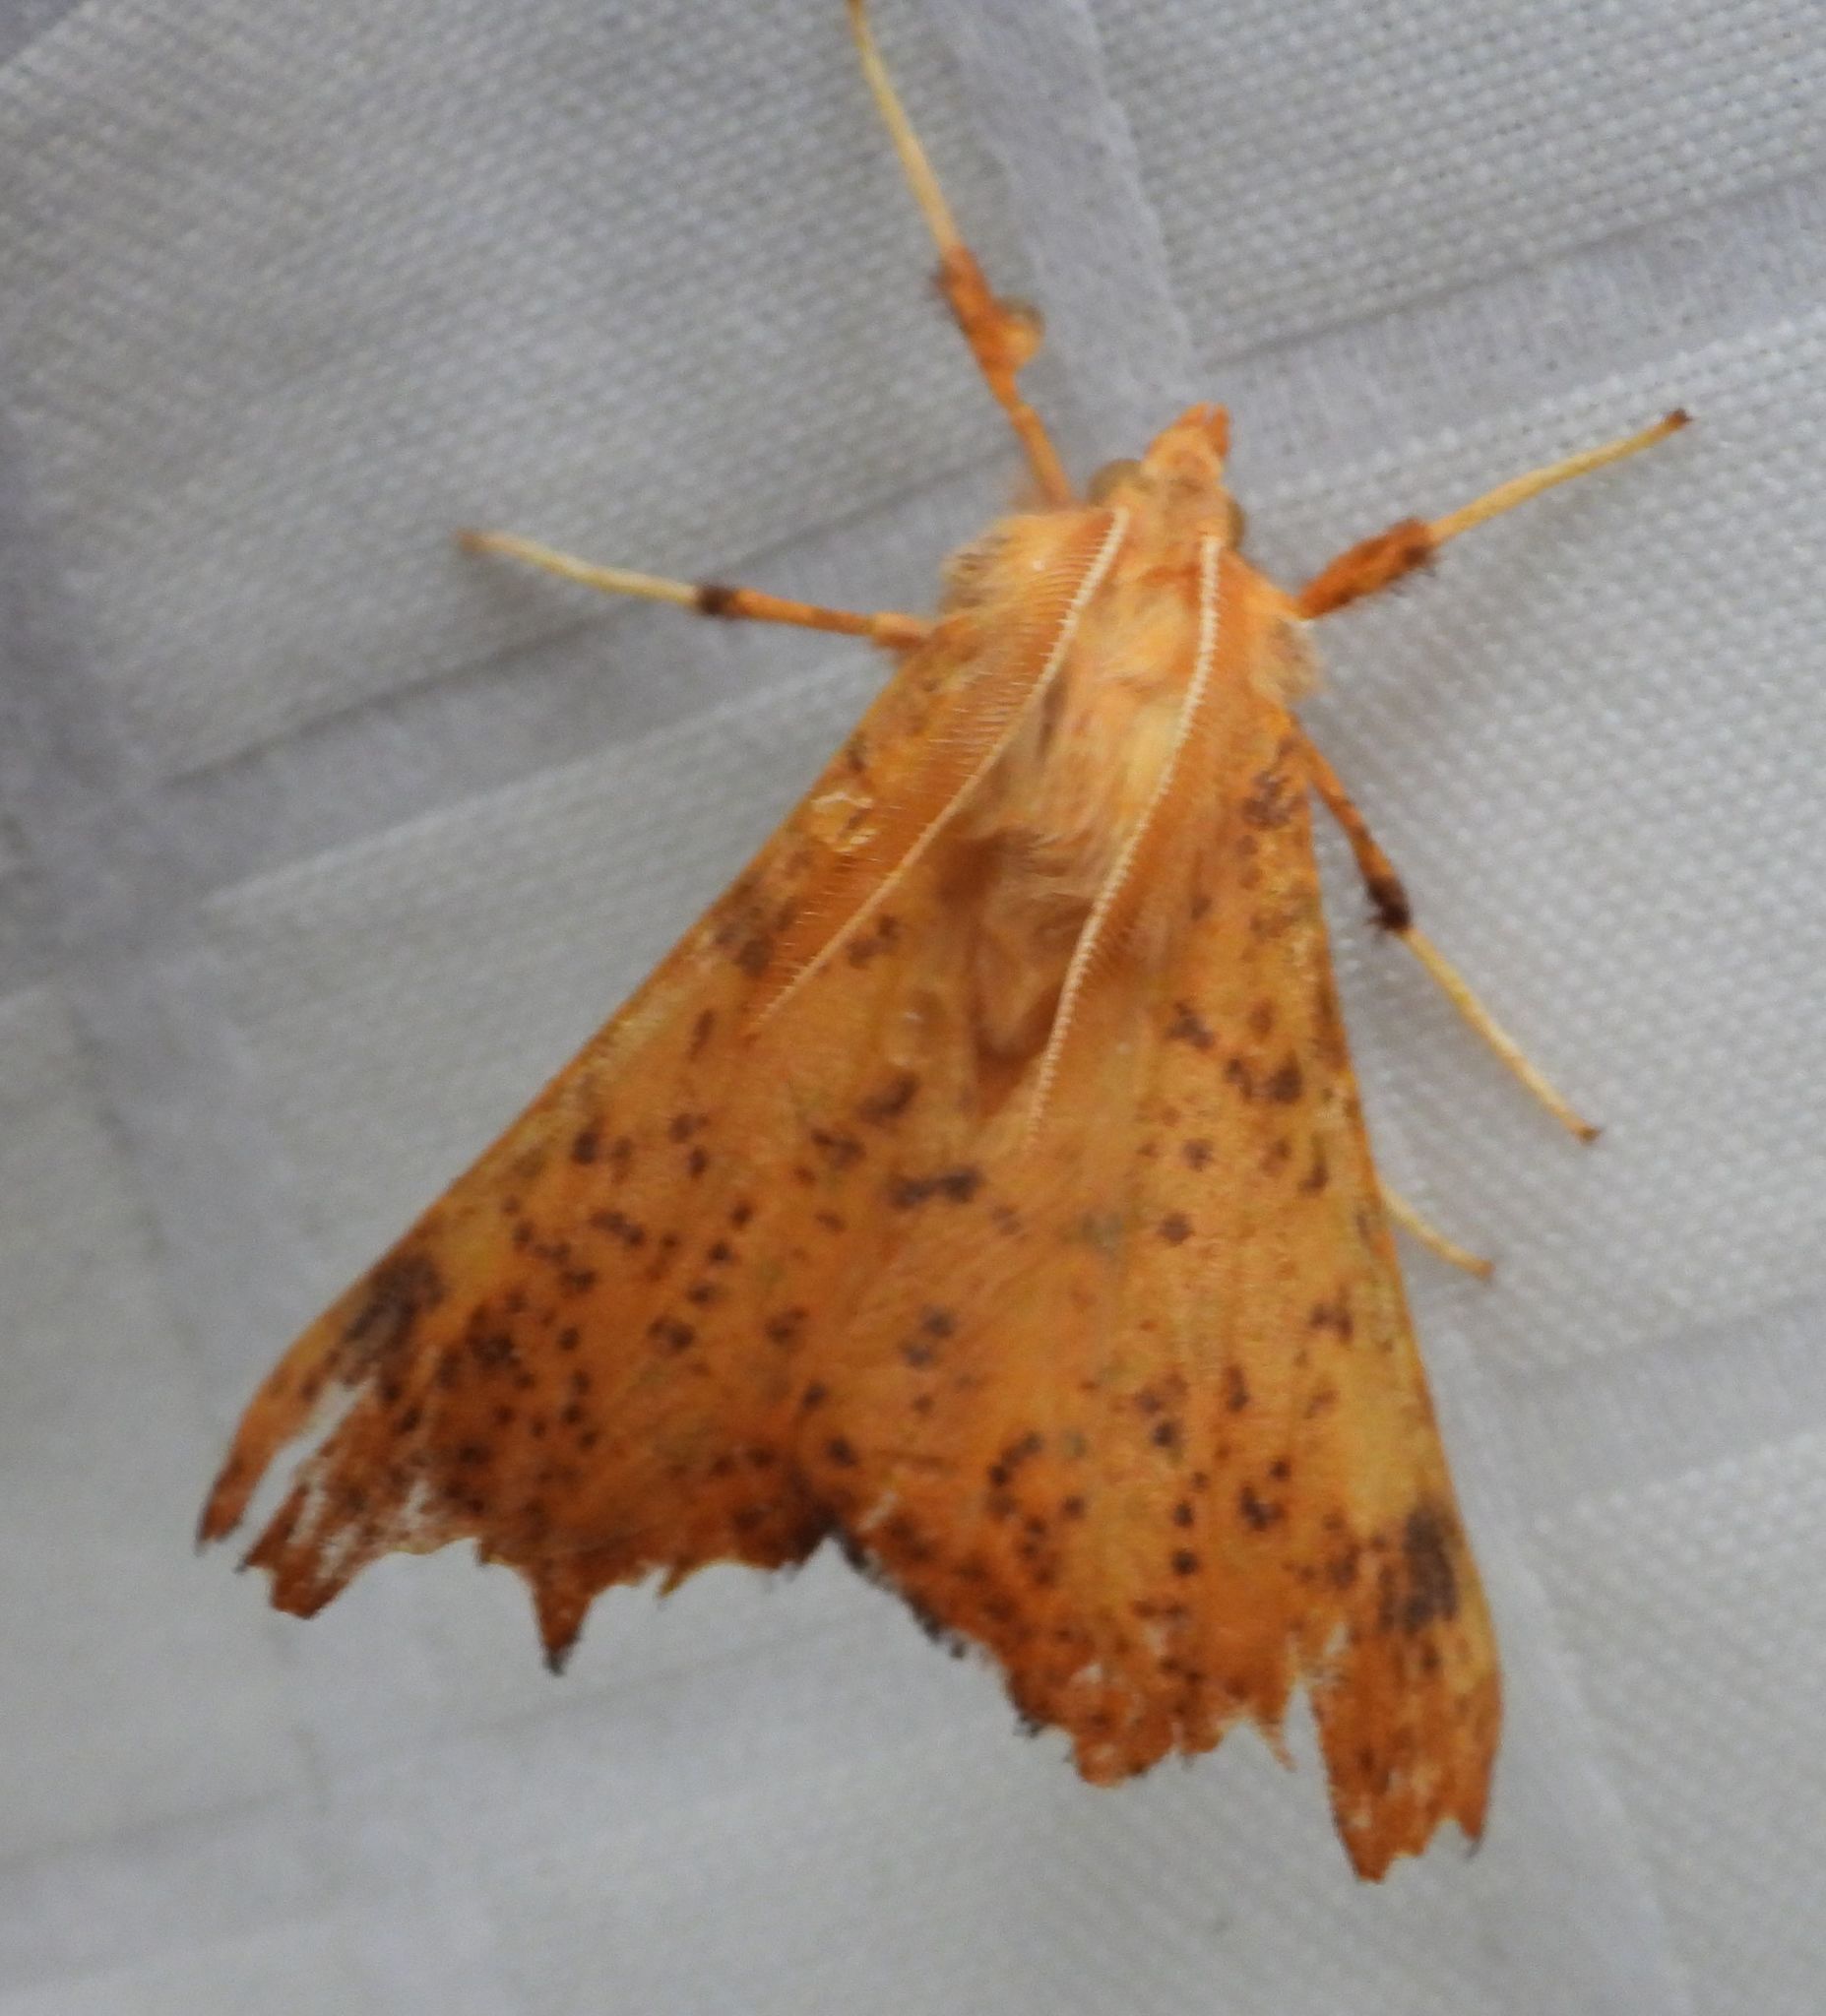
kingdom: Animalia
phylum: Arthropoda
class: Insecta
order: Lepidoptera
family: Geometridae
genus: Ennomos
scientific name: Ennomos magnaria
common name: Maple spanworm
